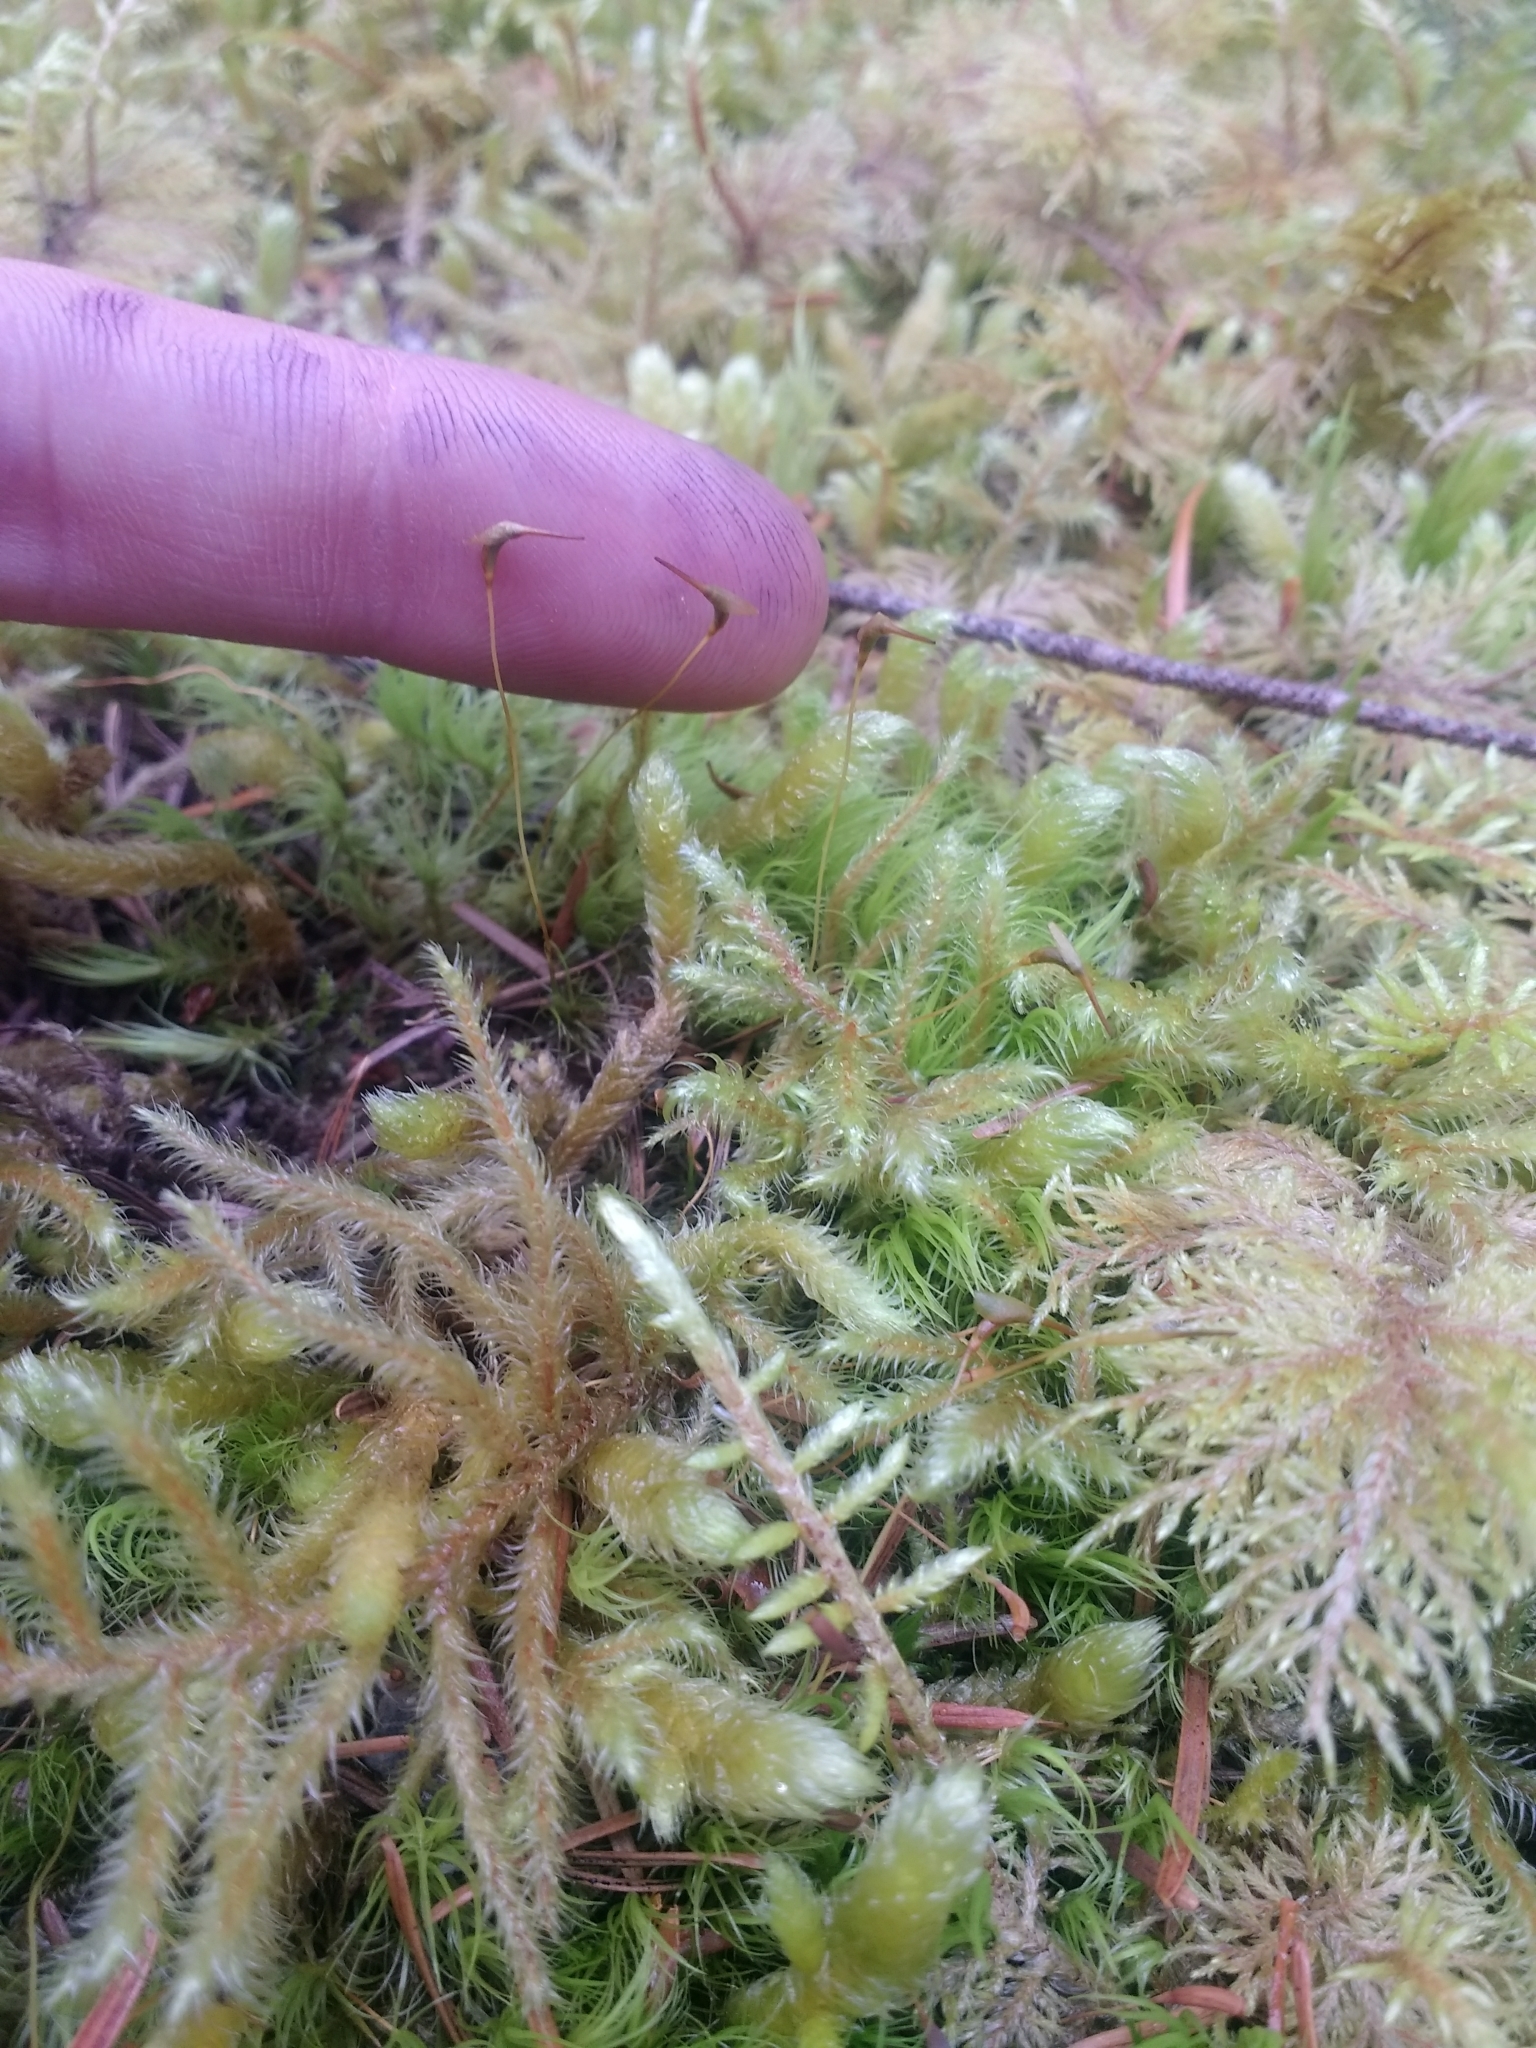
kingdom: Plantae
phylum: Bryophyta
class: Bryopsida
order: Dicranales
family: Dicranaceae
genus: Dicranum
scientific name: Dicranum scoparium
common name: Broom fork-moss
